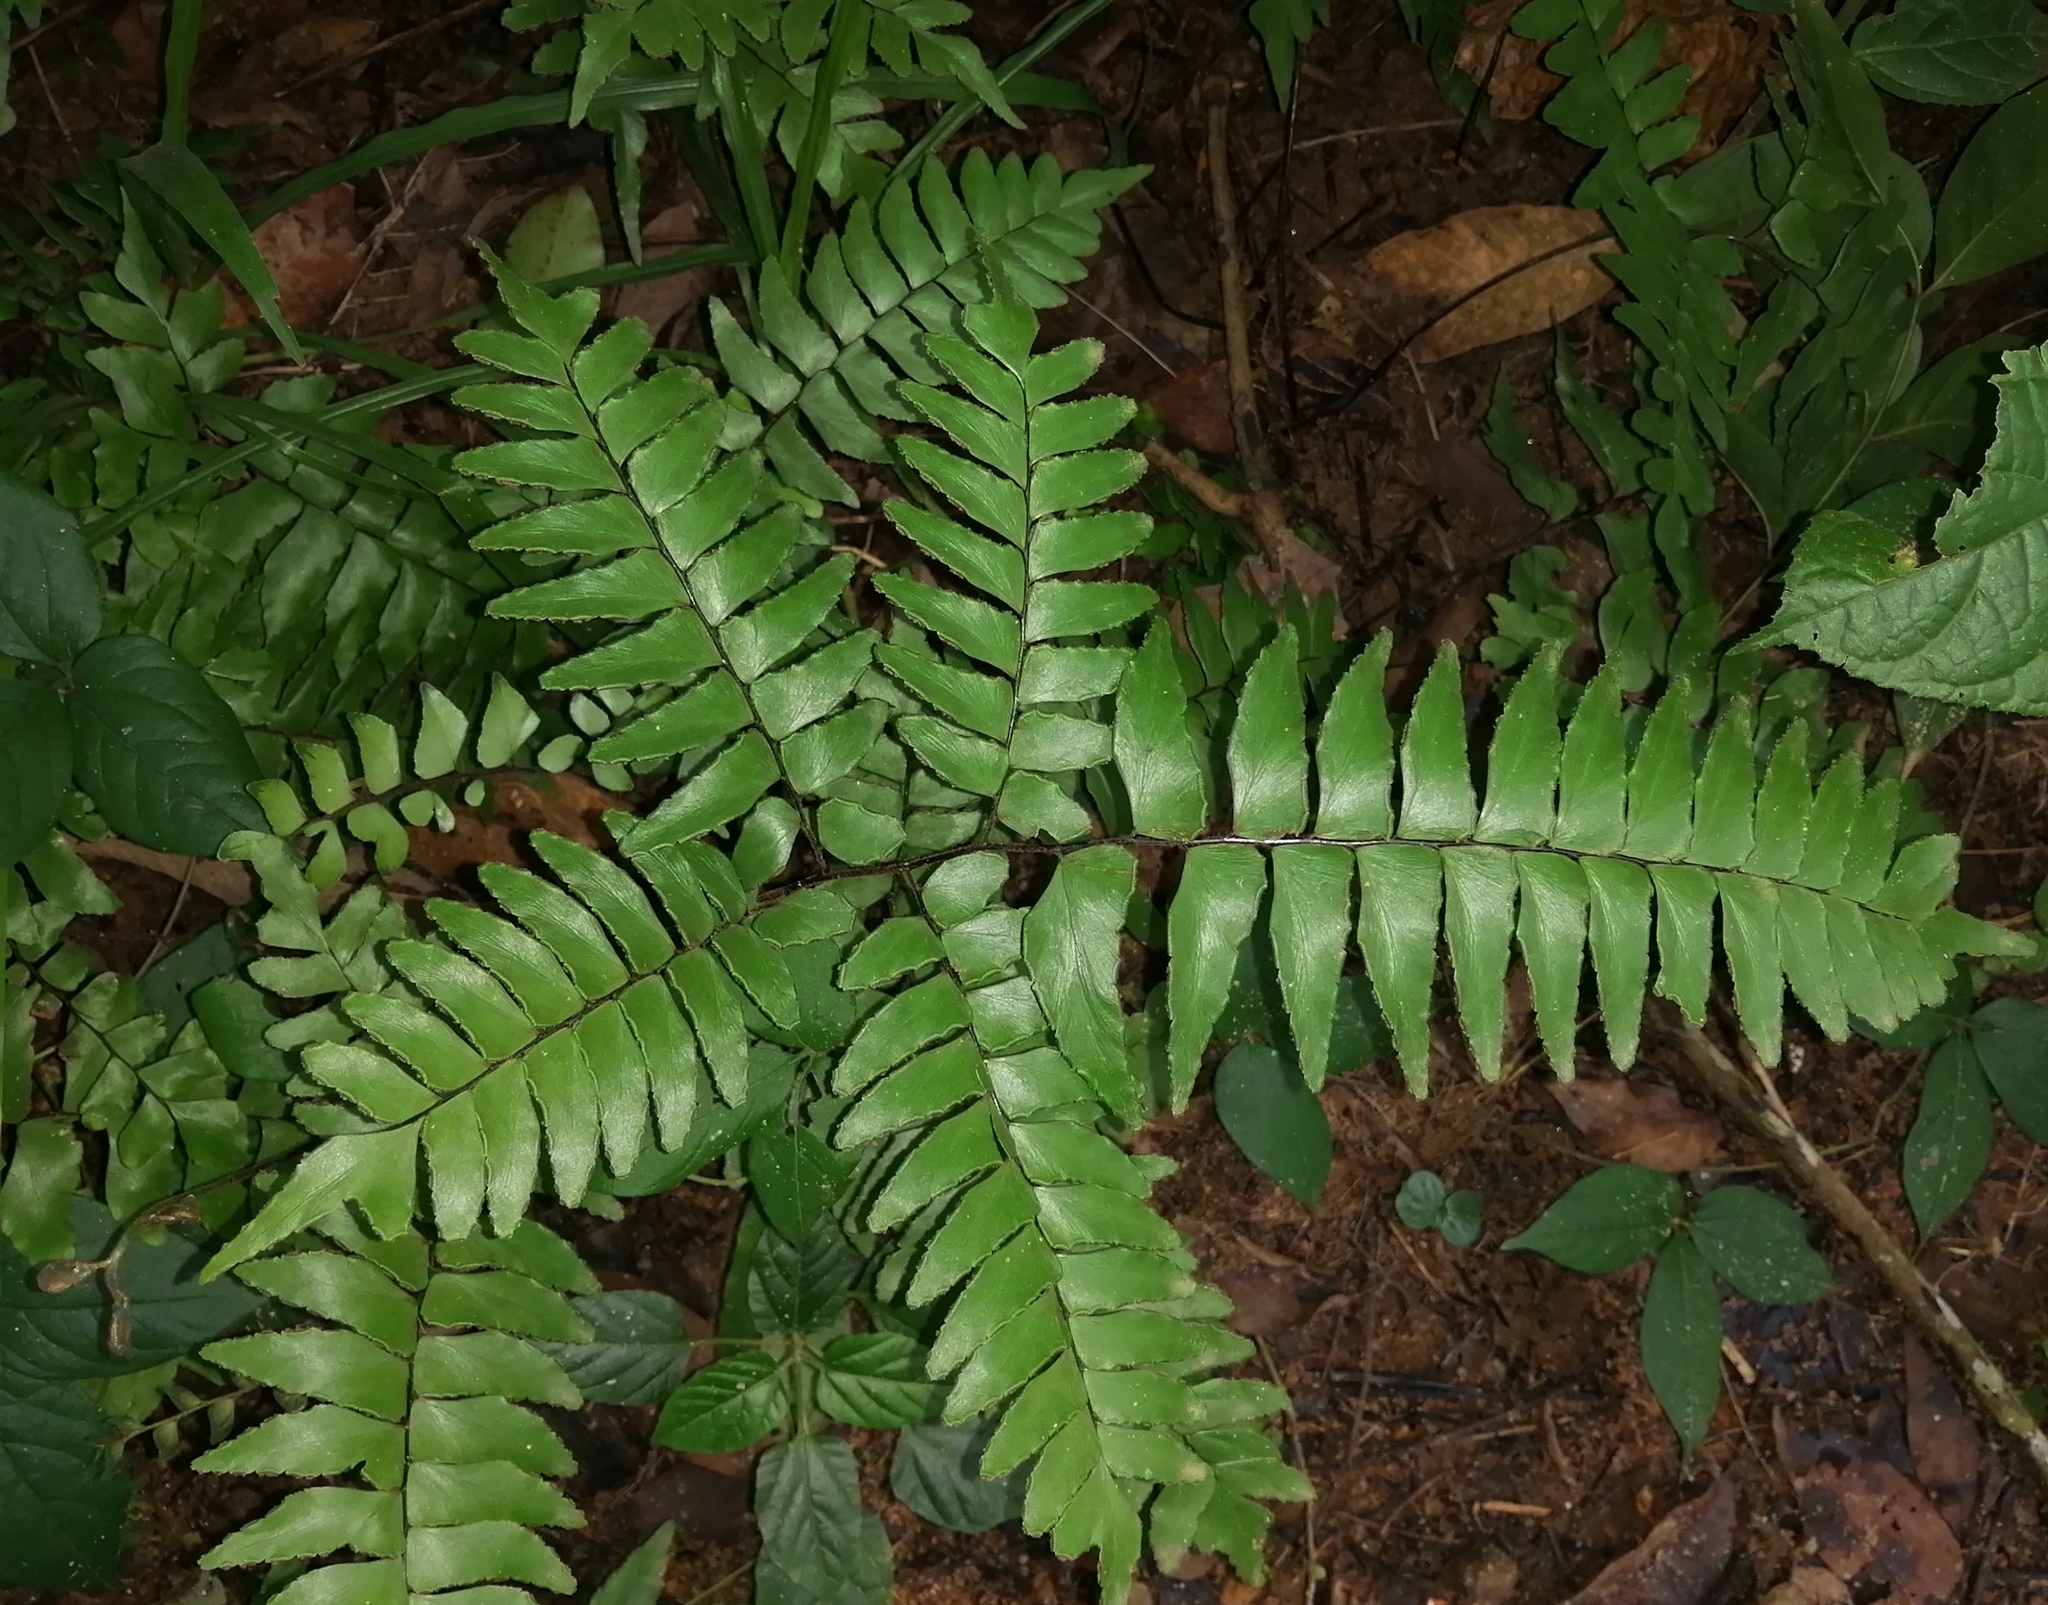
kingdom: Plantae
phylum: Tracheophyta
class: Polypodiopsida
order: Polypodiales
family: Pteridaceae
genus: Adiantum
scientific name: Adiantum latifolium
